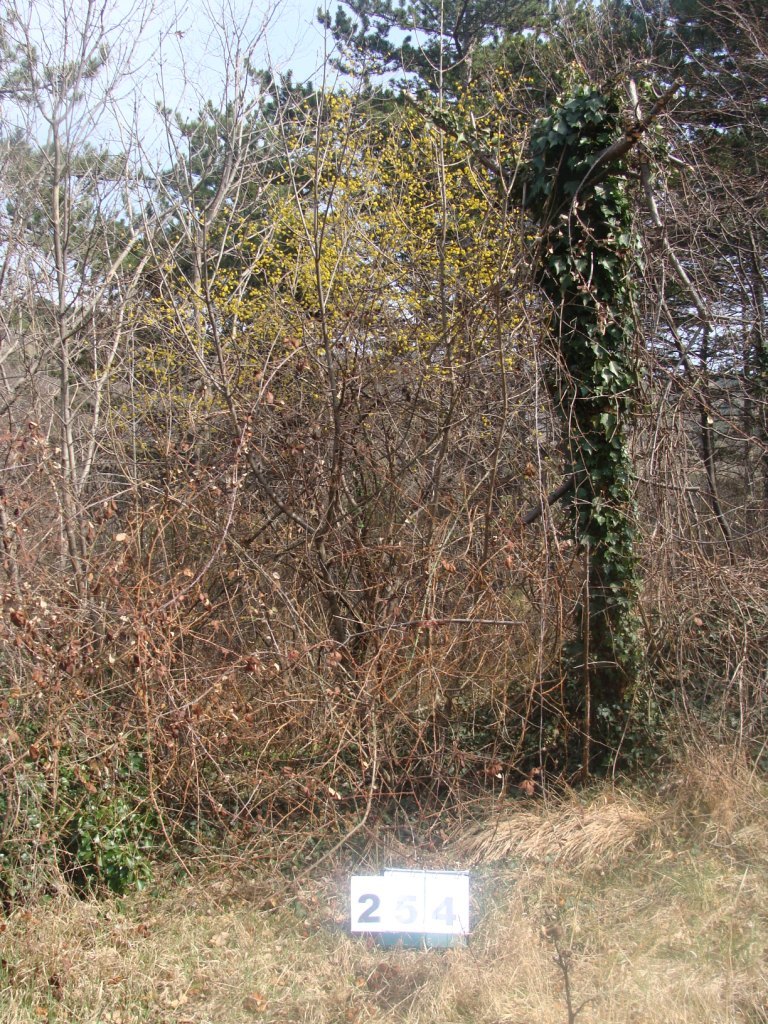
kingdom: Plantae
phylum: Tracheophyta
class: Magnoliopsida
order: Cornales
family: Cornaceae
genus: Cornus
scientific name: Cornus mas
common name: Cornelian-cherry
